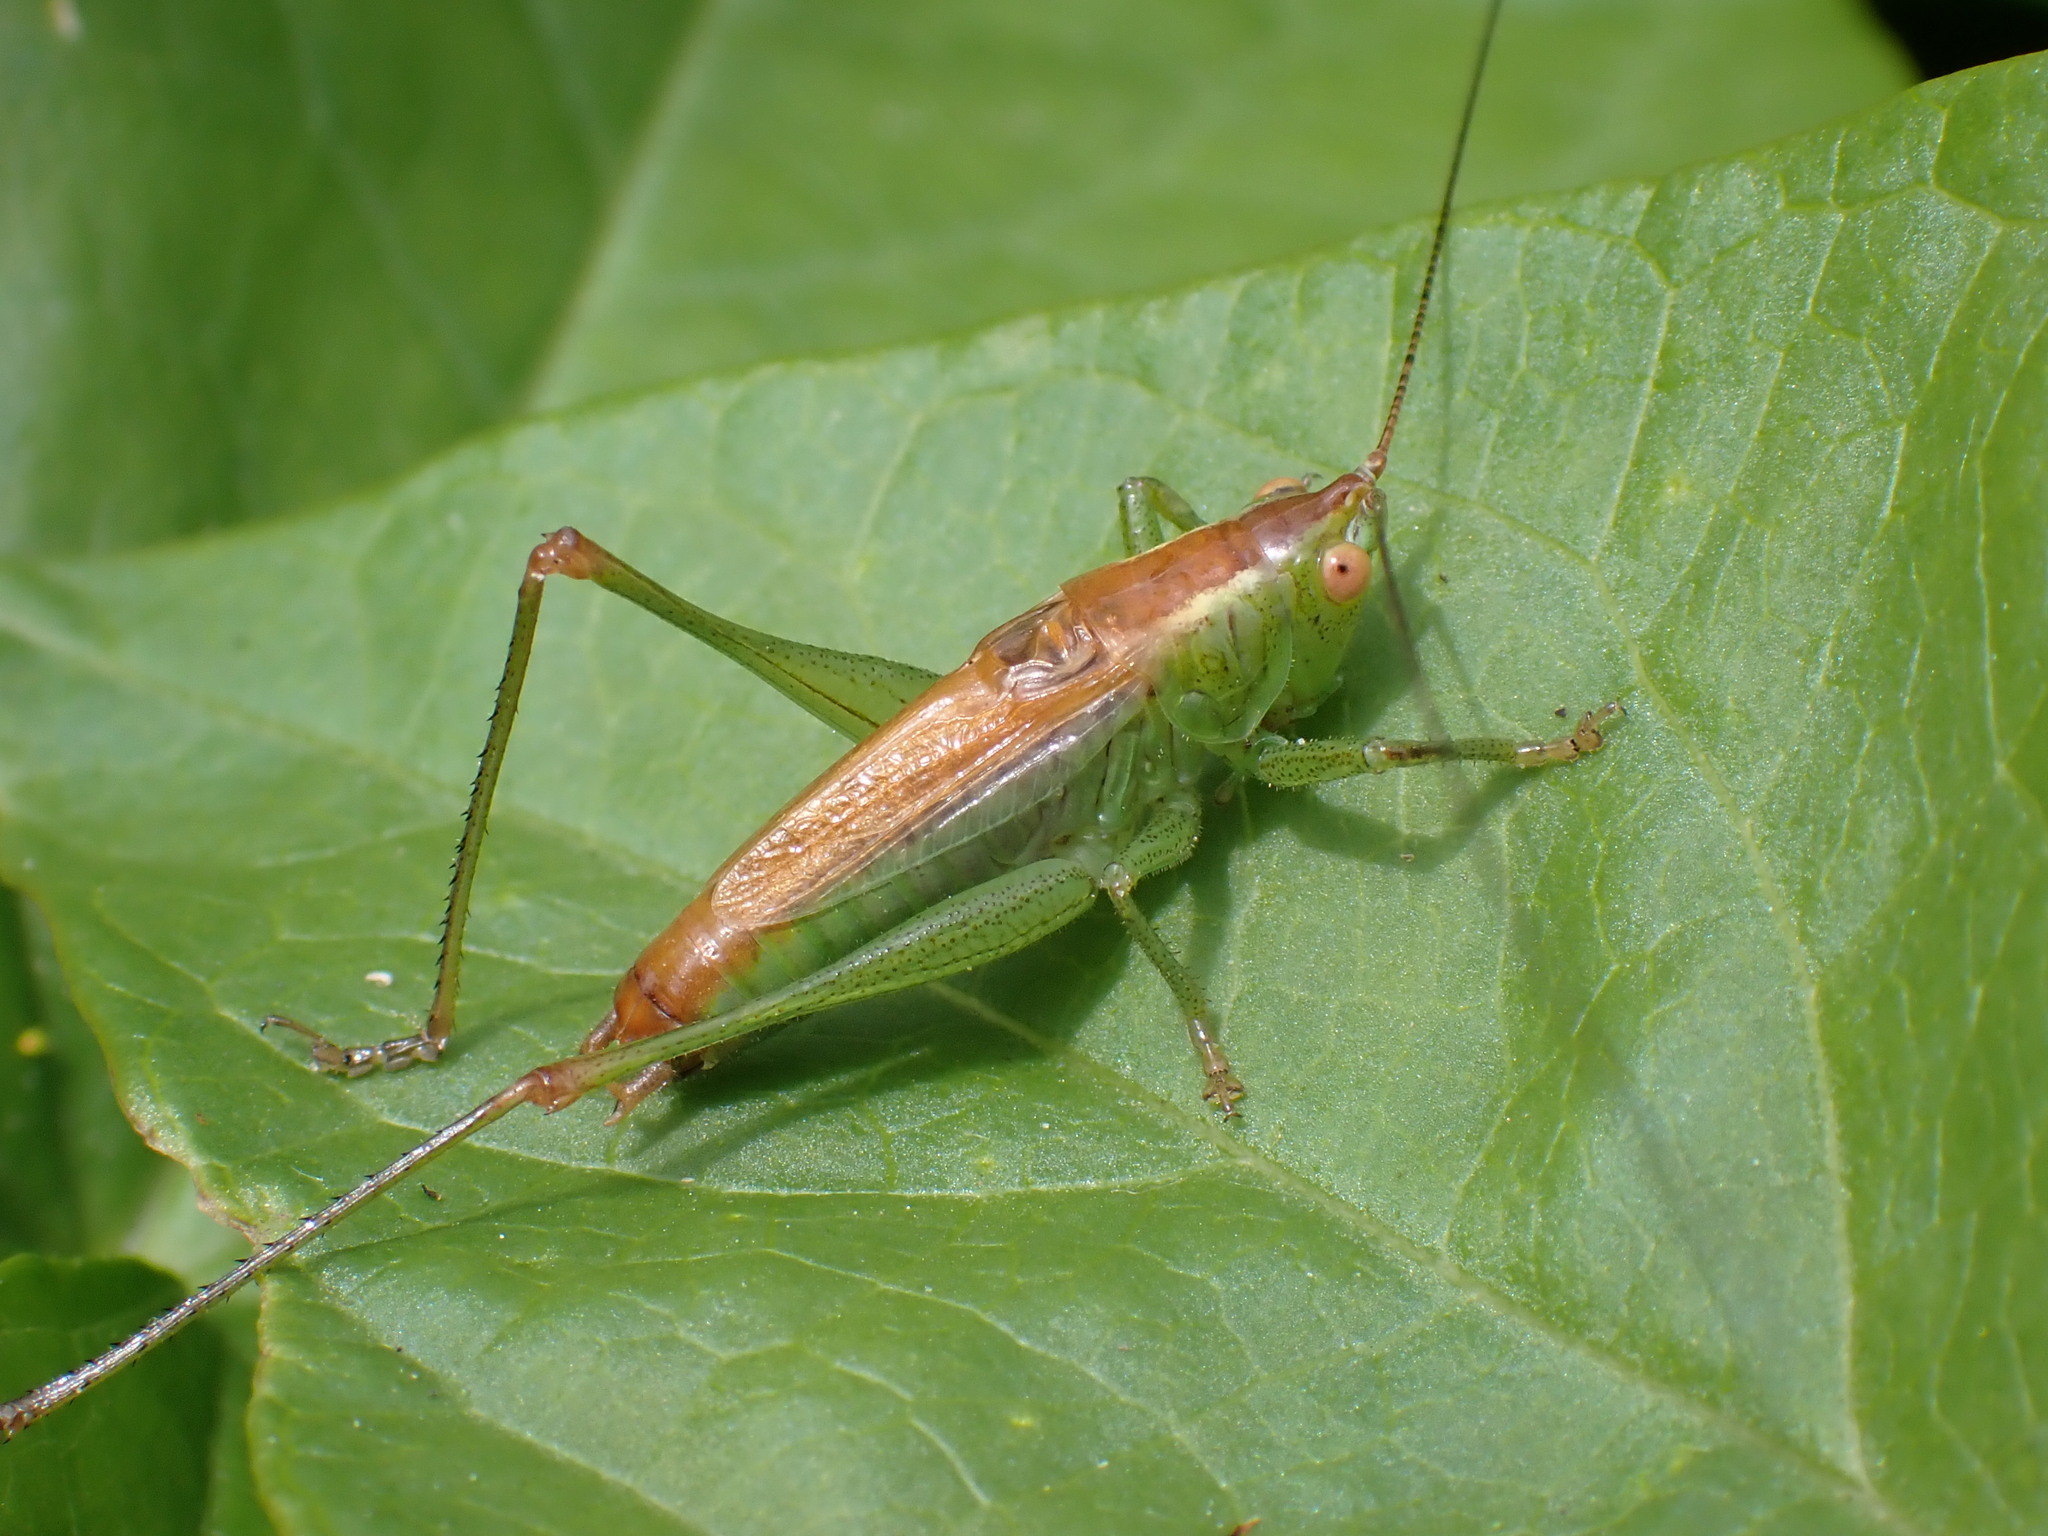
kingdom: Animalia
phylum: Arthropoda
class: Insecta
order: Orthoptera
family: Tettigoniidae
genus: Conocephalus
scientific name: Conocephalus dorsalis
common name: Short-winged conehead
